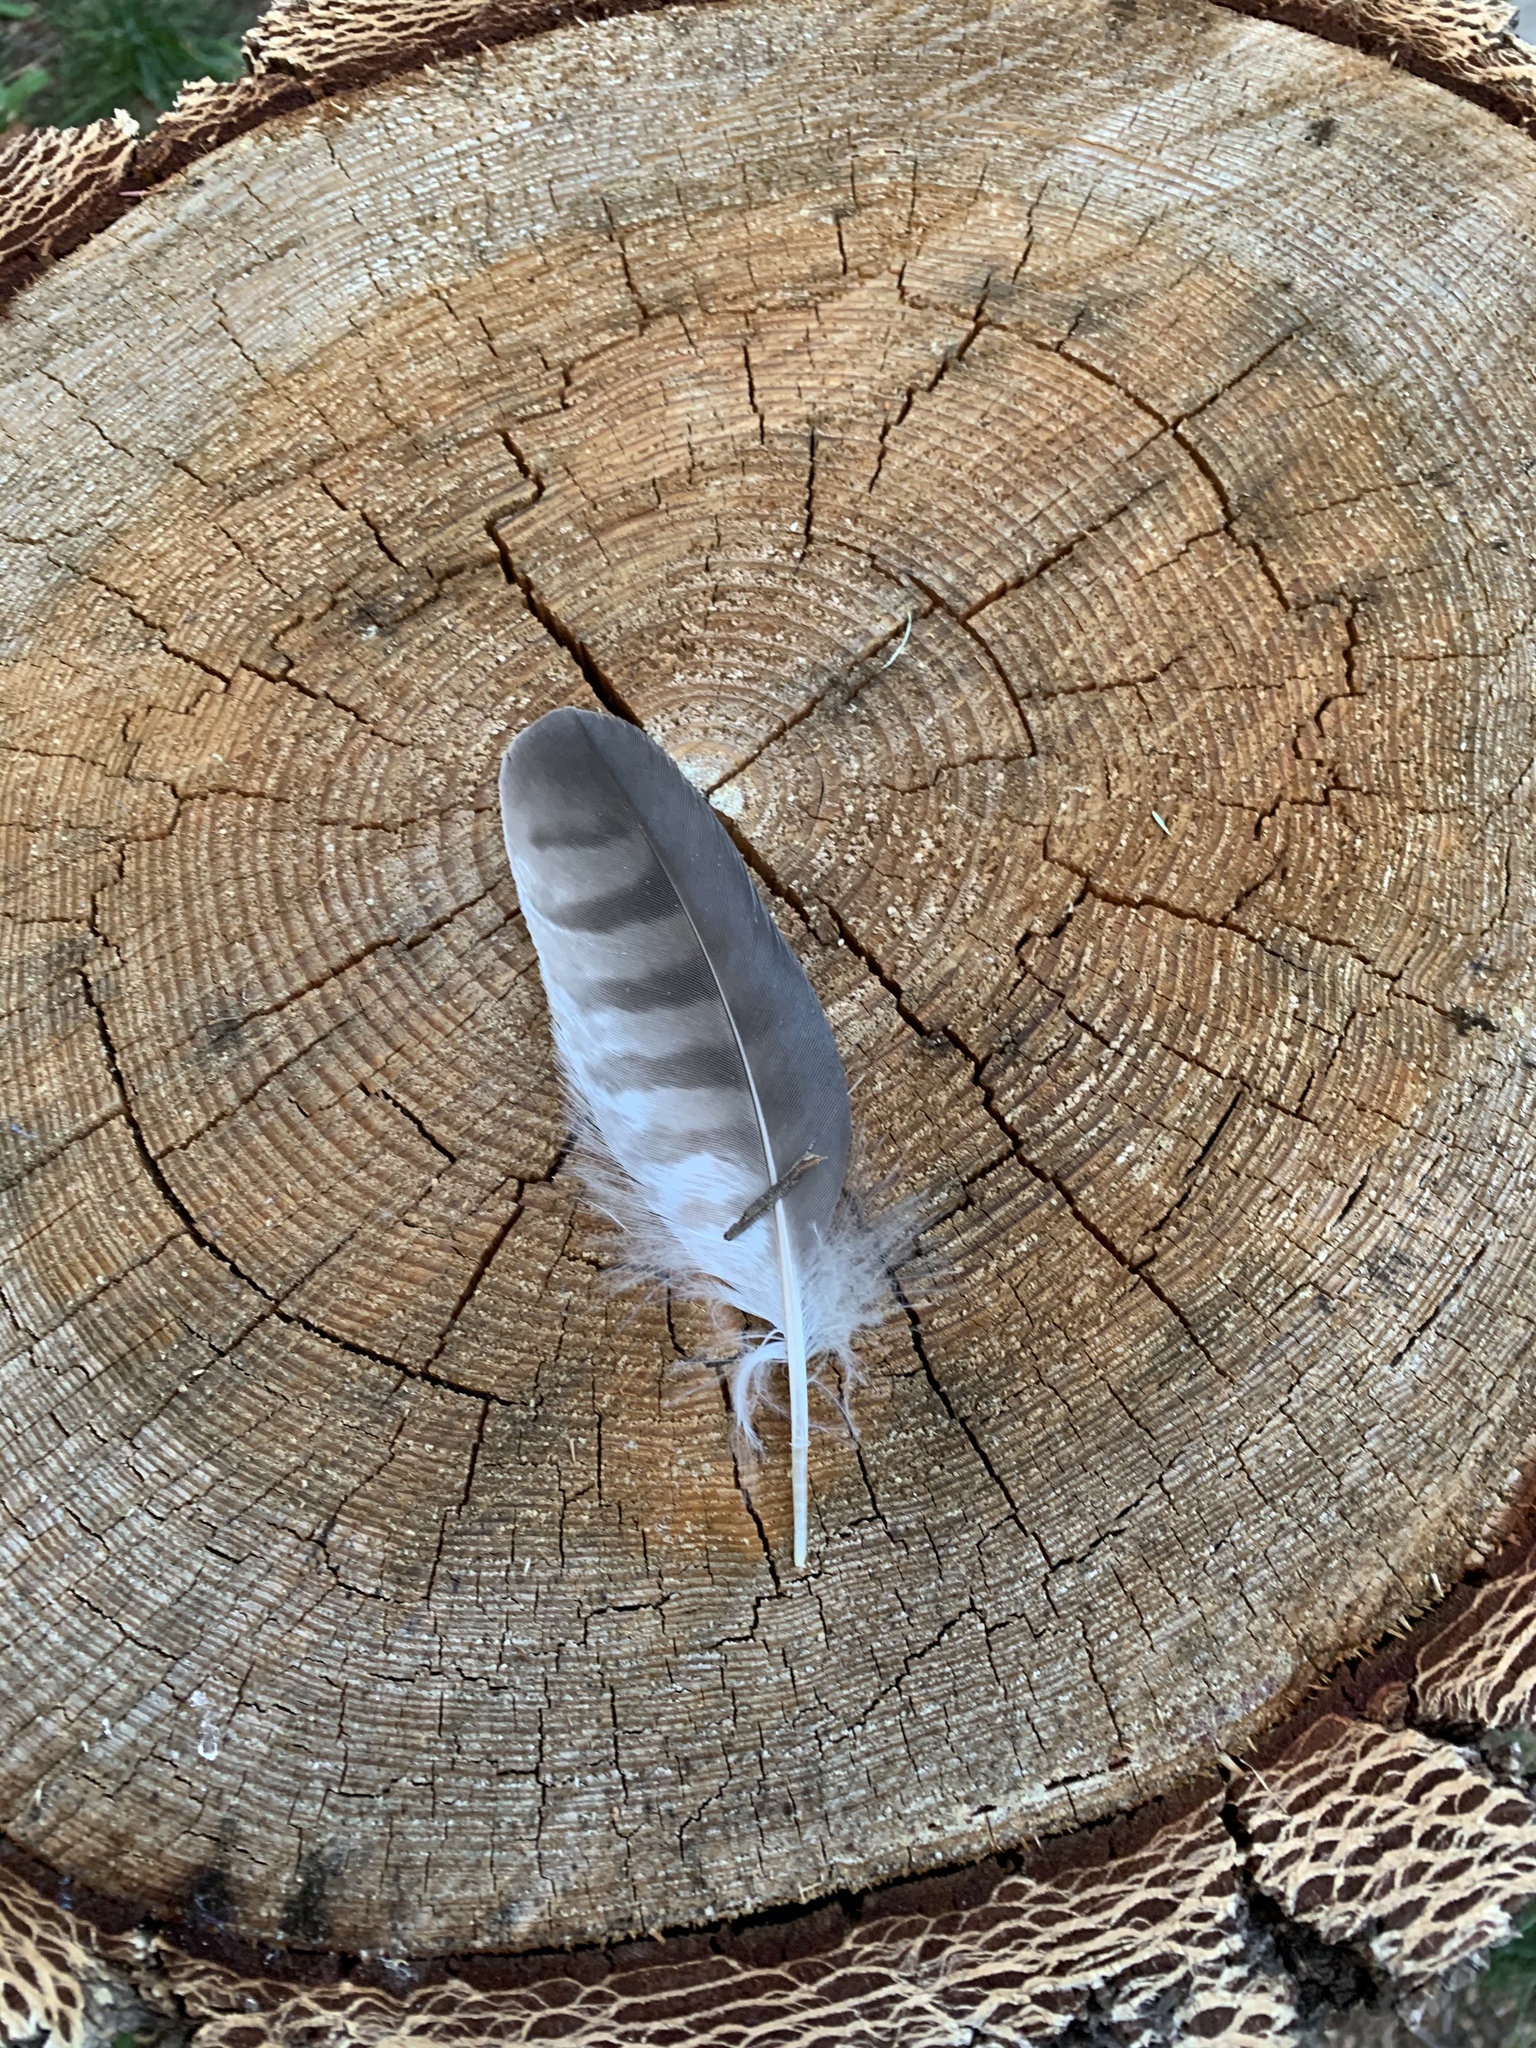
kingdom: Animalia
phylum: Chordata
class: Aves
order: Accipitriformes
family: Accipitridae
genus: Accipiter
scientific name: Accipiter striatus
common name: Sharp-shinned hawk
